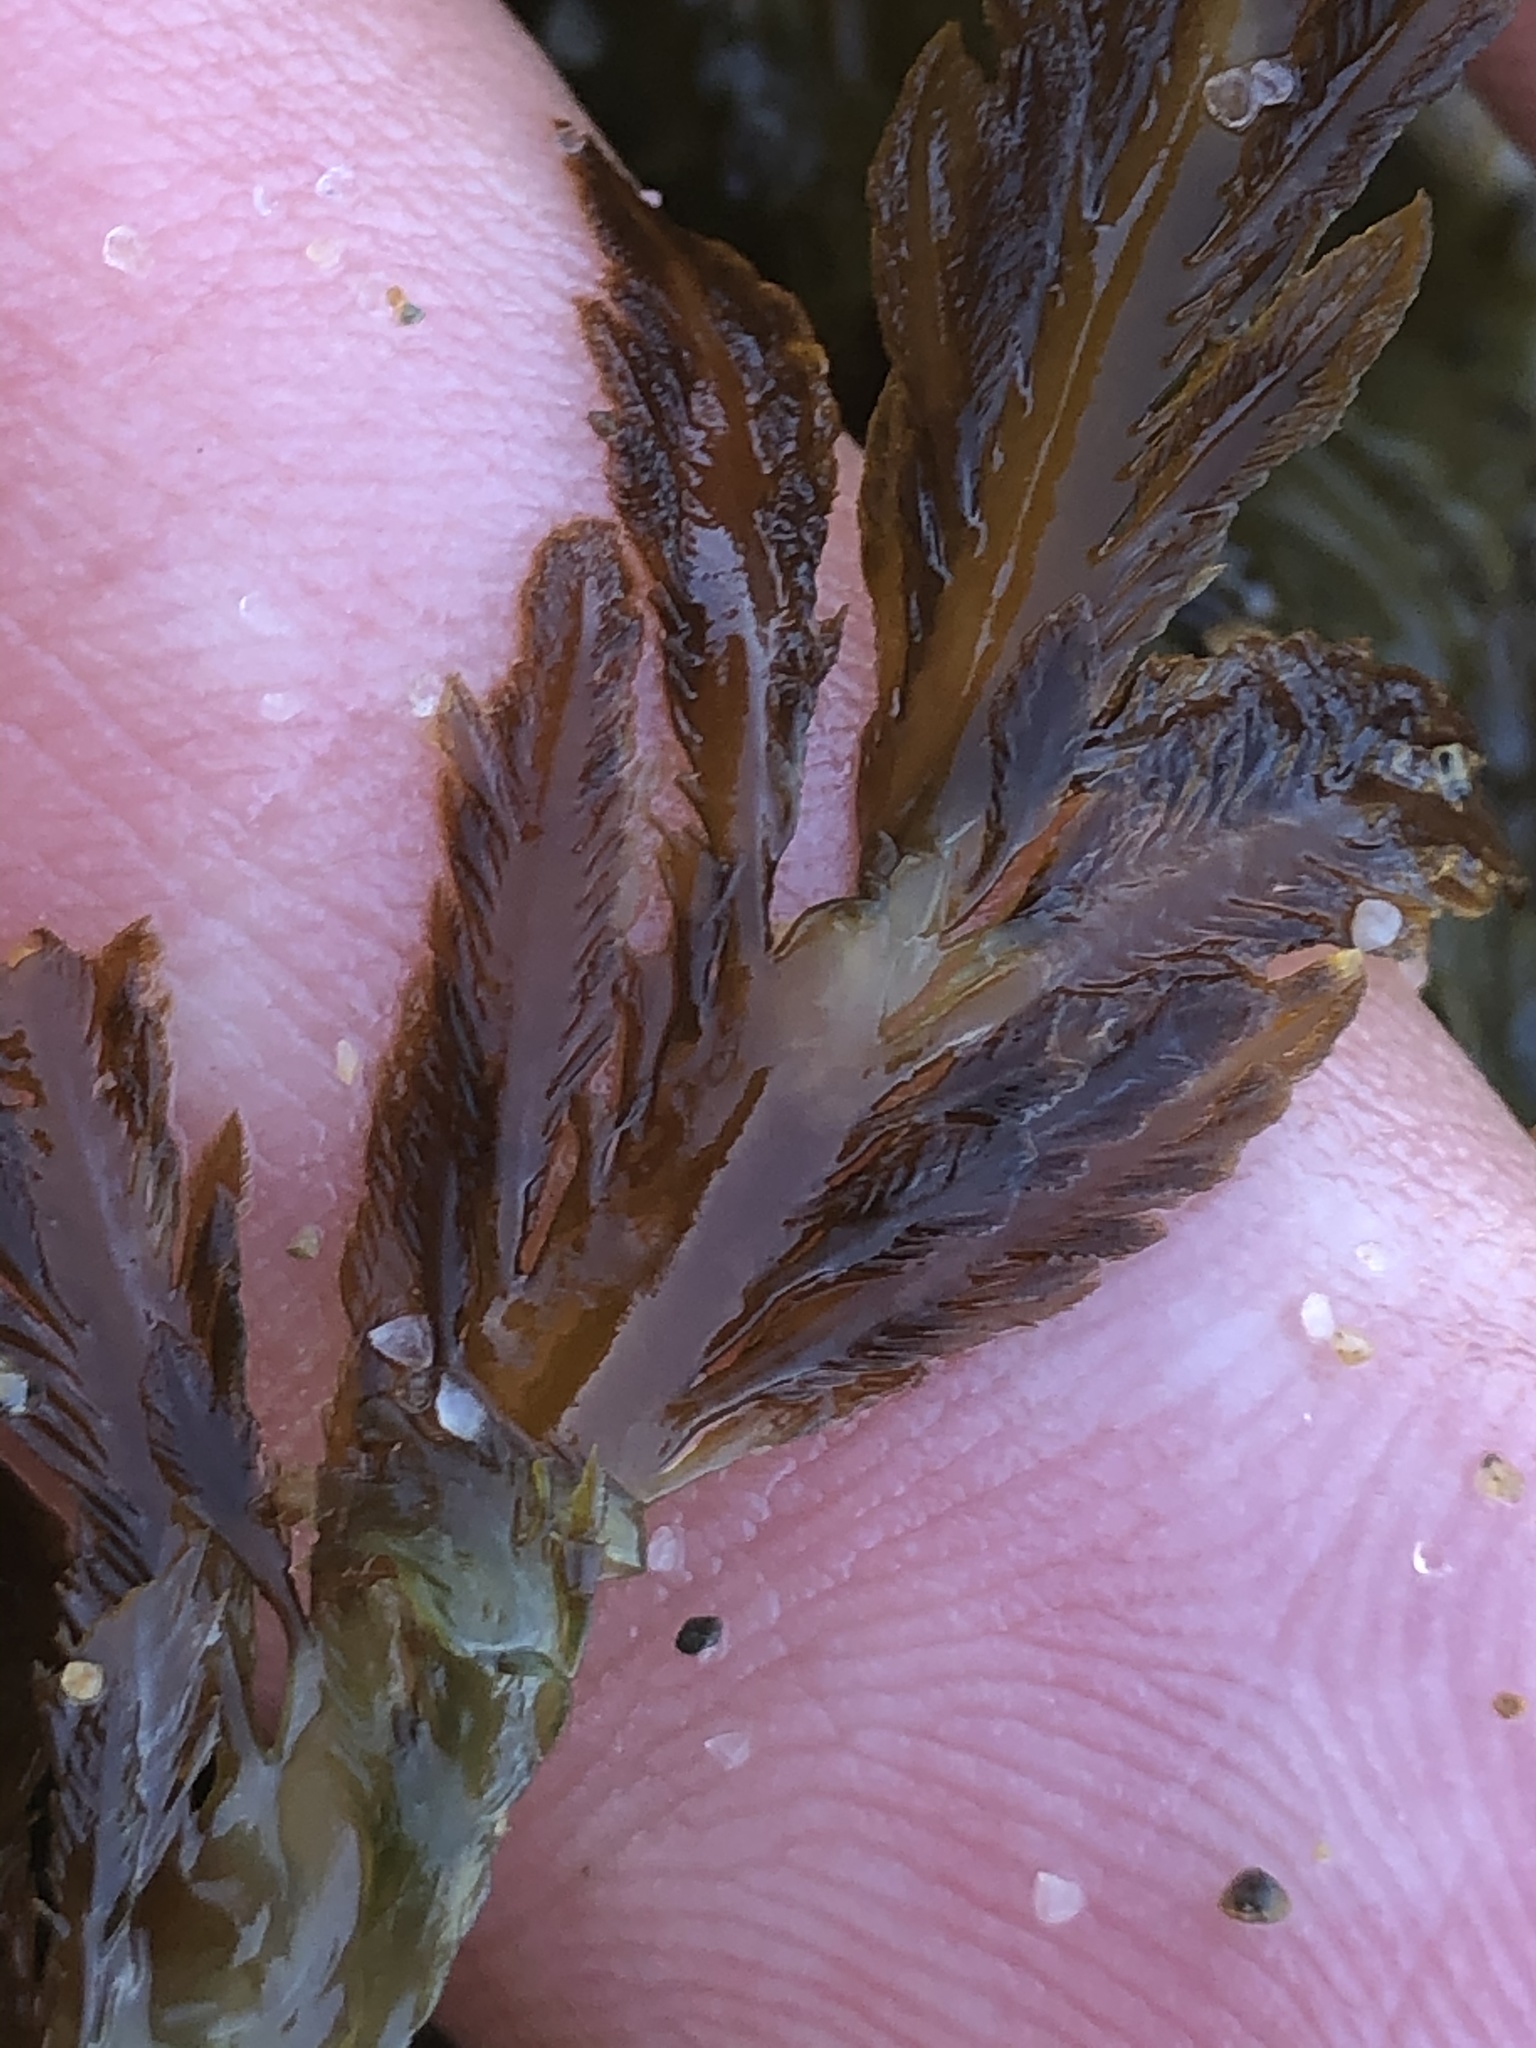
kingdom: Chromista
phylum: Ochrophyta
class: Phaeophyceae
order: Desmarestiales
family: Desmarestiaceae
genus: Desmarestia
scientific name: Desmarestia ligulata
